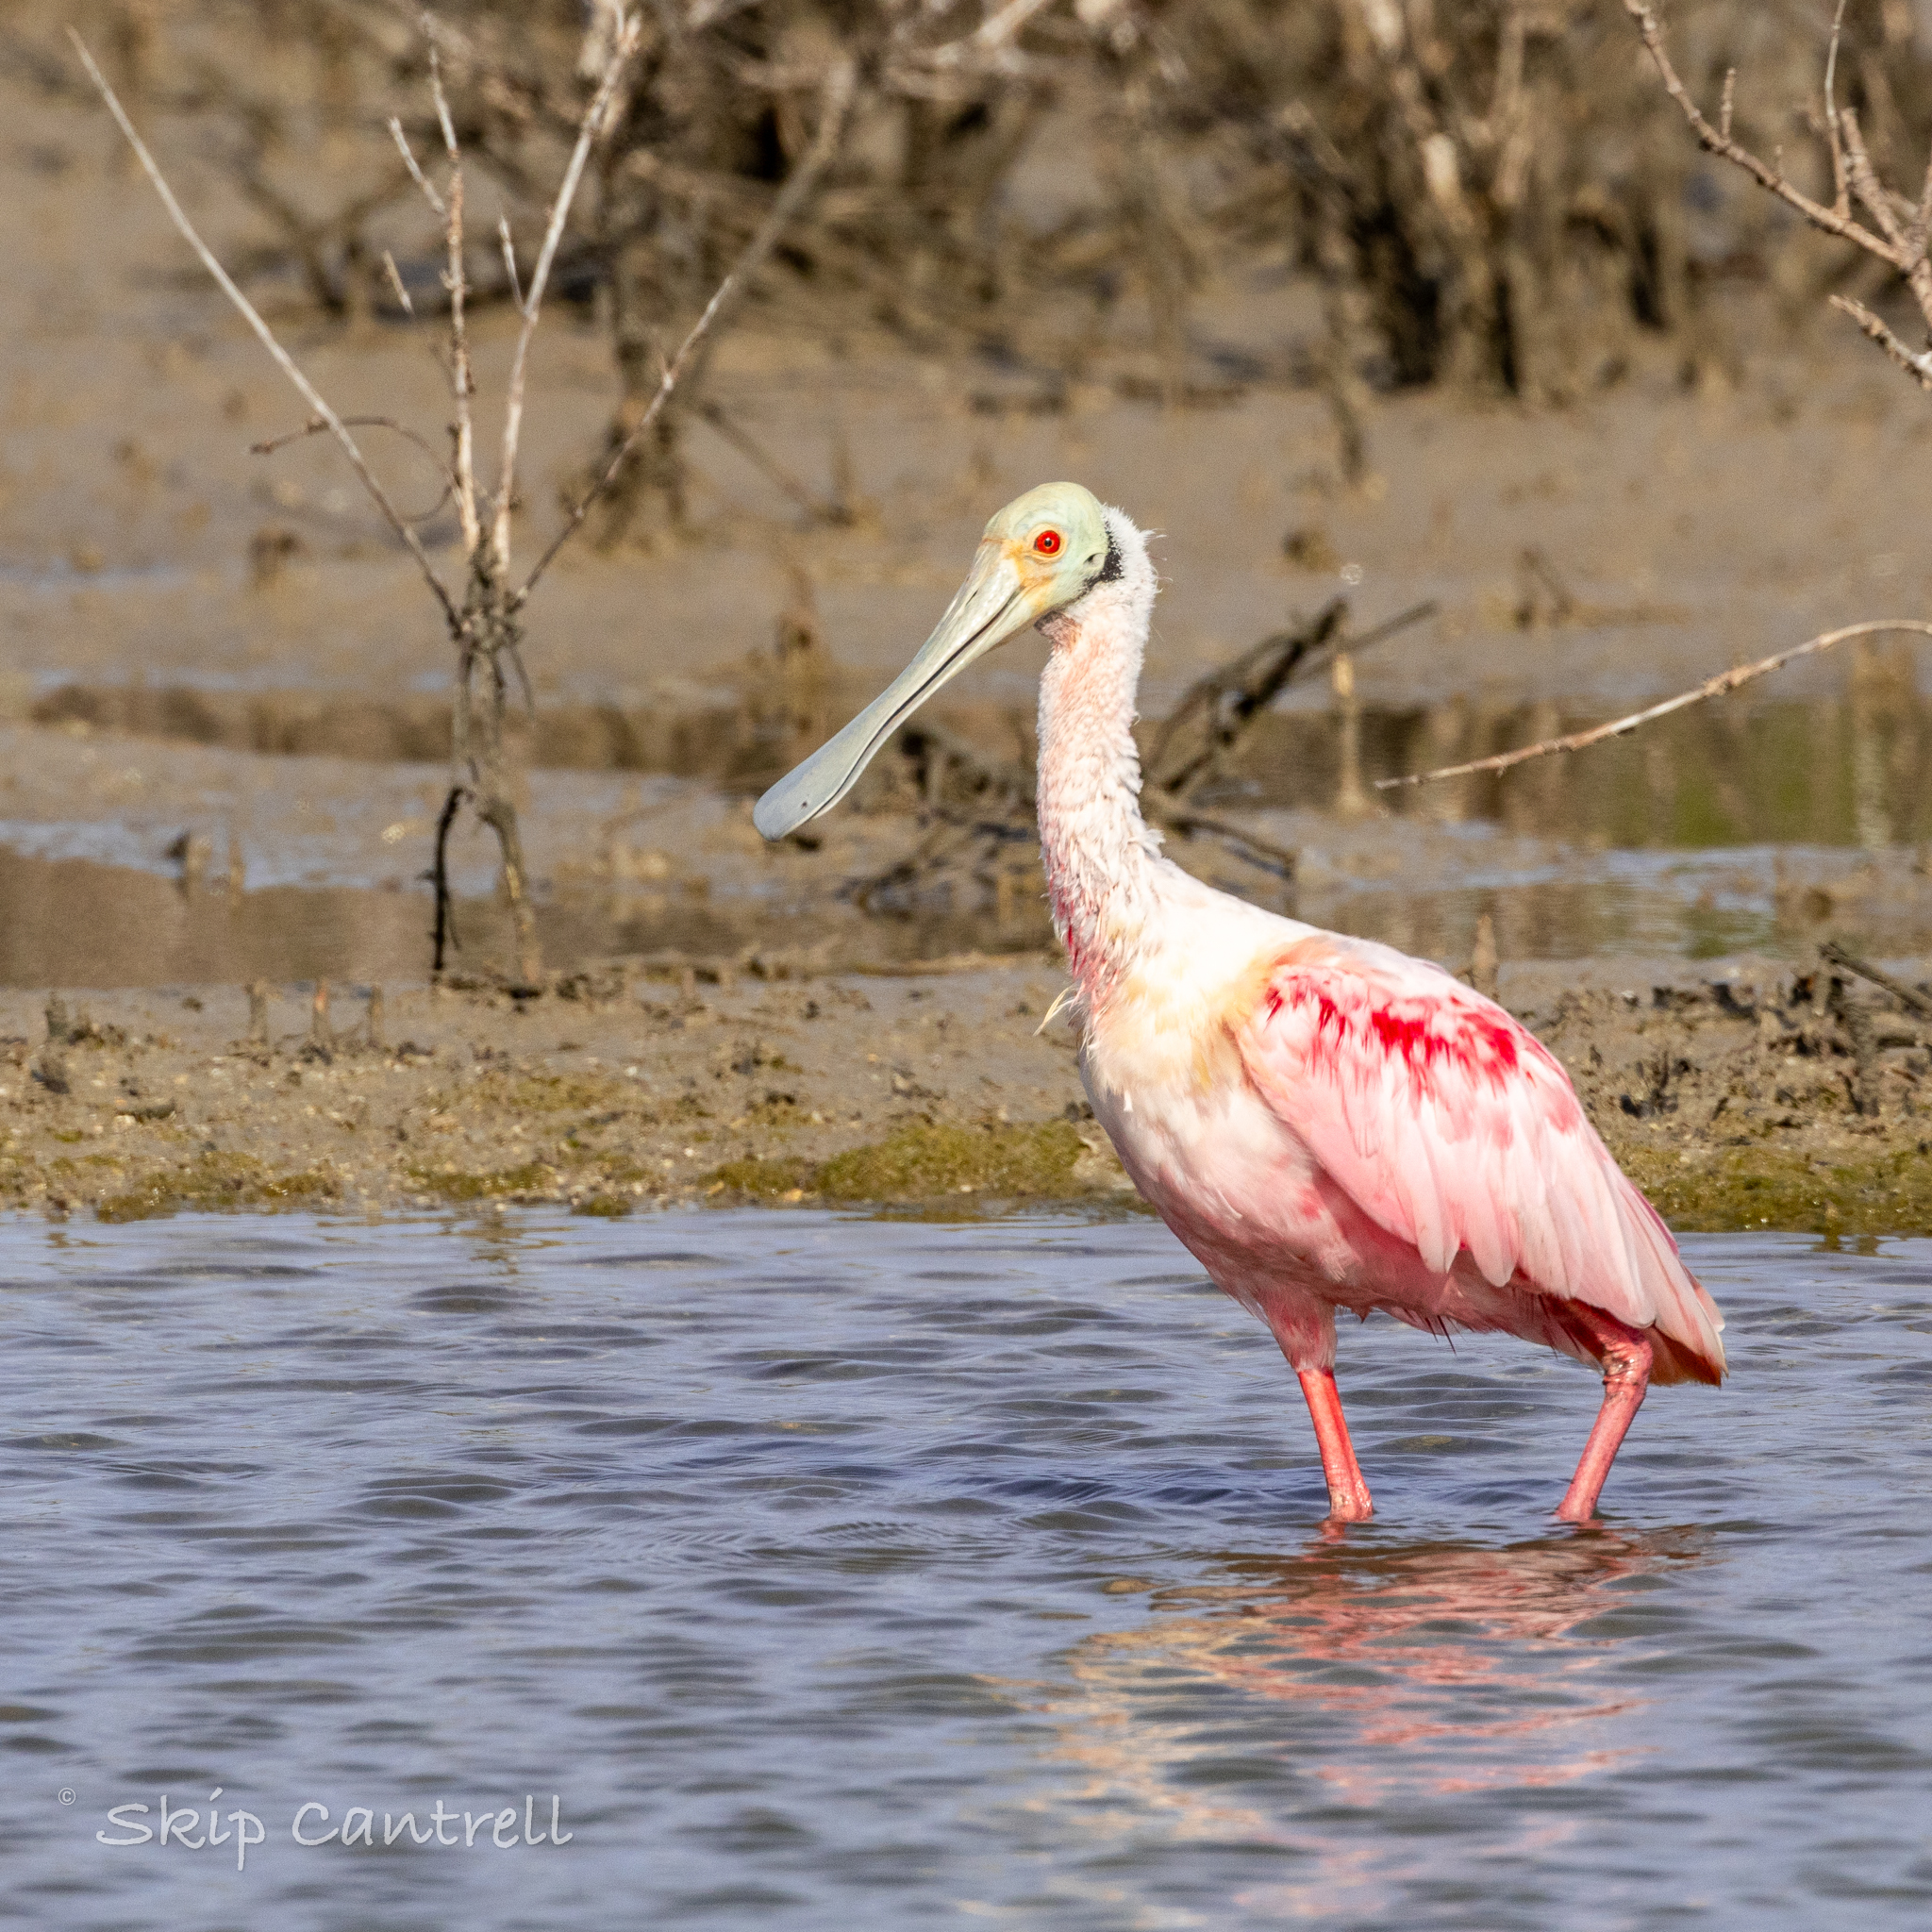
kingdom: Animalia
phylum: Chordata
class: Aves
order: Pelecaniformes
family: Threskiornithidae
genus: Platalea
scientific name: Platalea ajaja
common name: Roseate spoonbill
